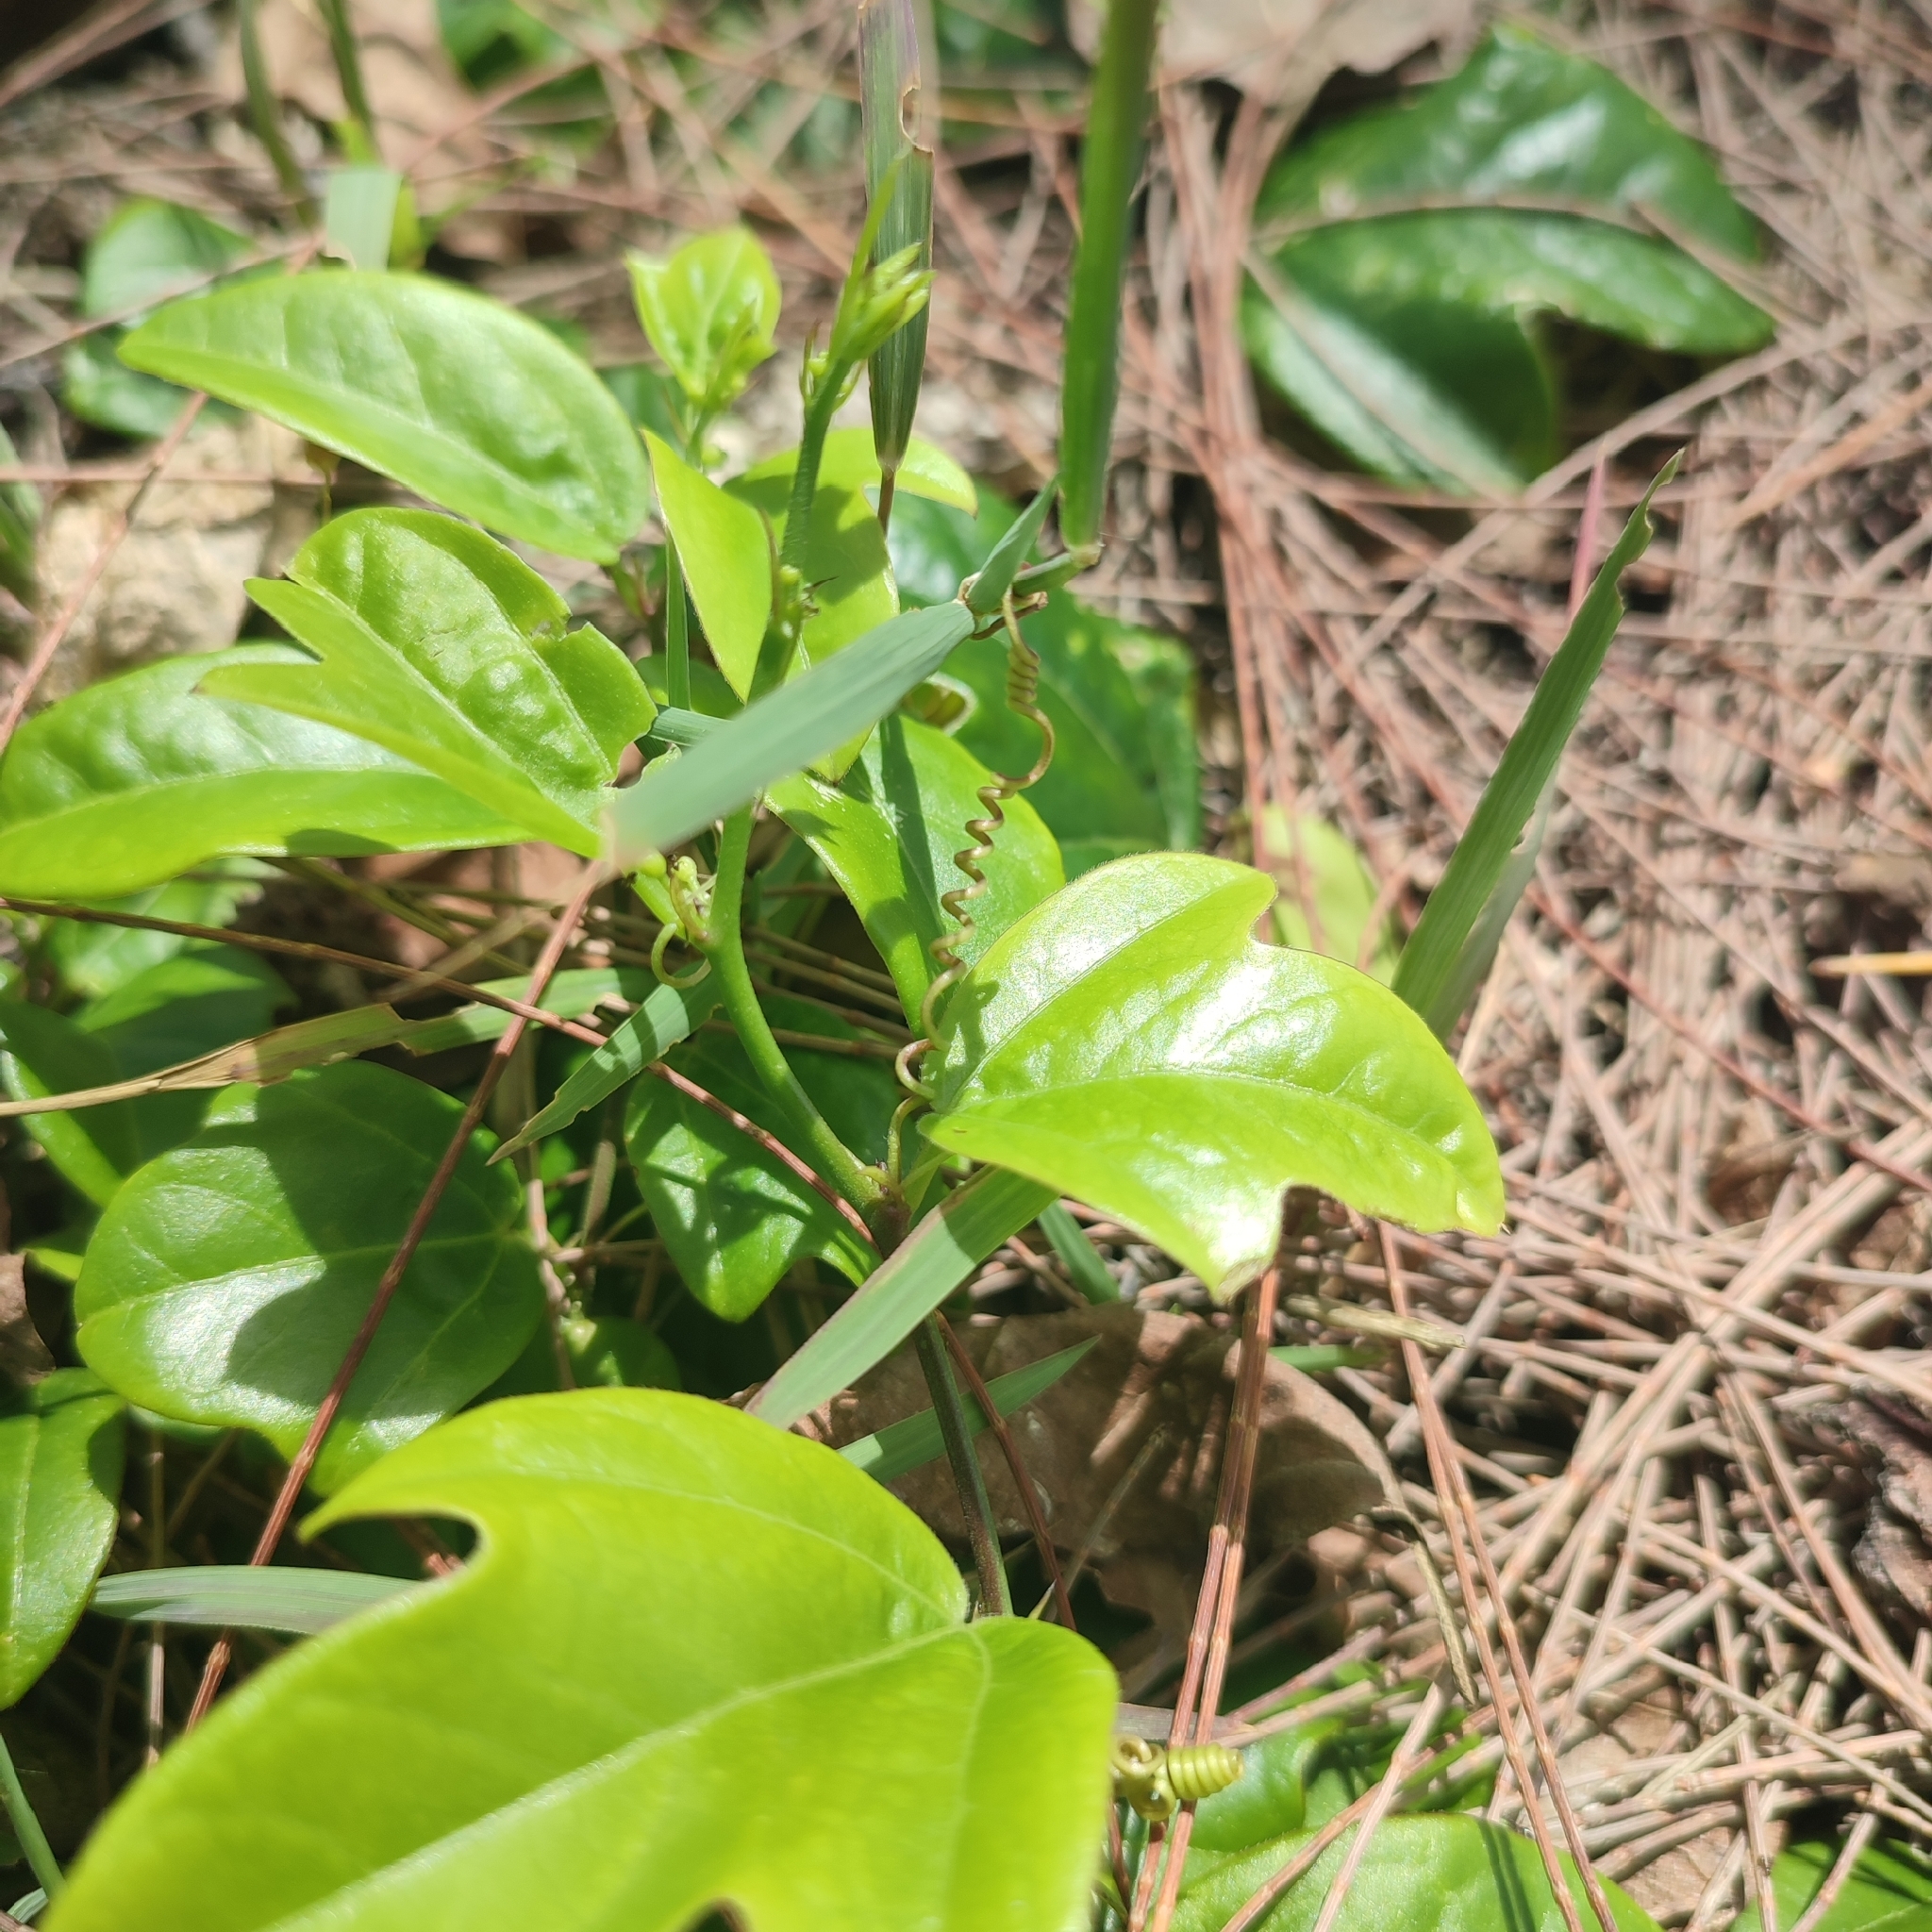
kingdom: Plantae
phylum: Tracheophyta
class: Magnoliopsida
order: Malpighiales
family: Passifloraceae
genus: Passiflora
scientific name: Passiflora pallida
